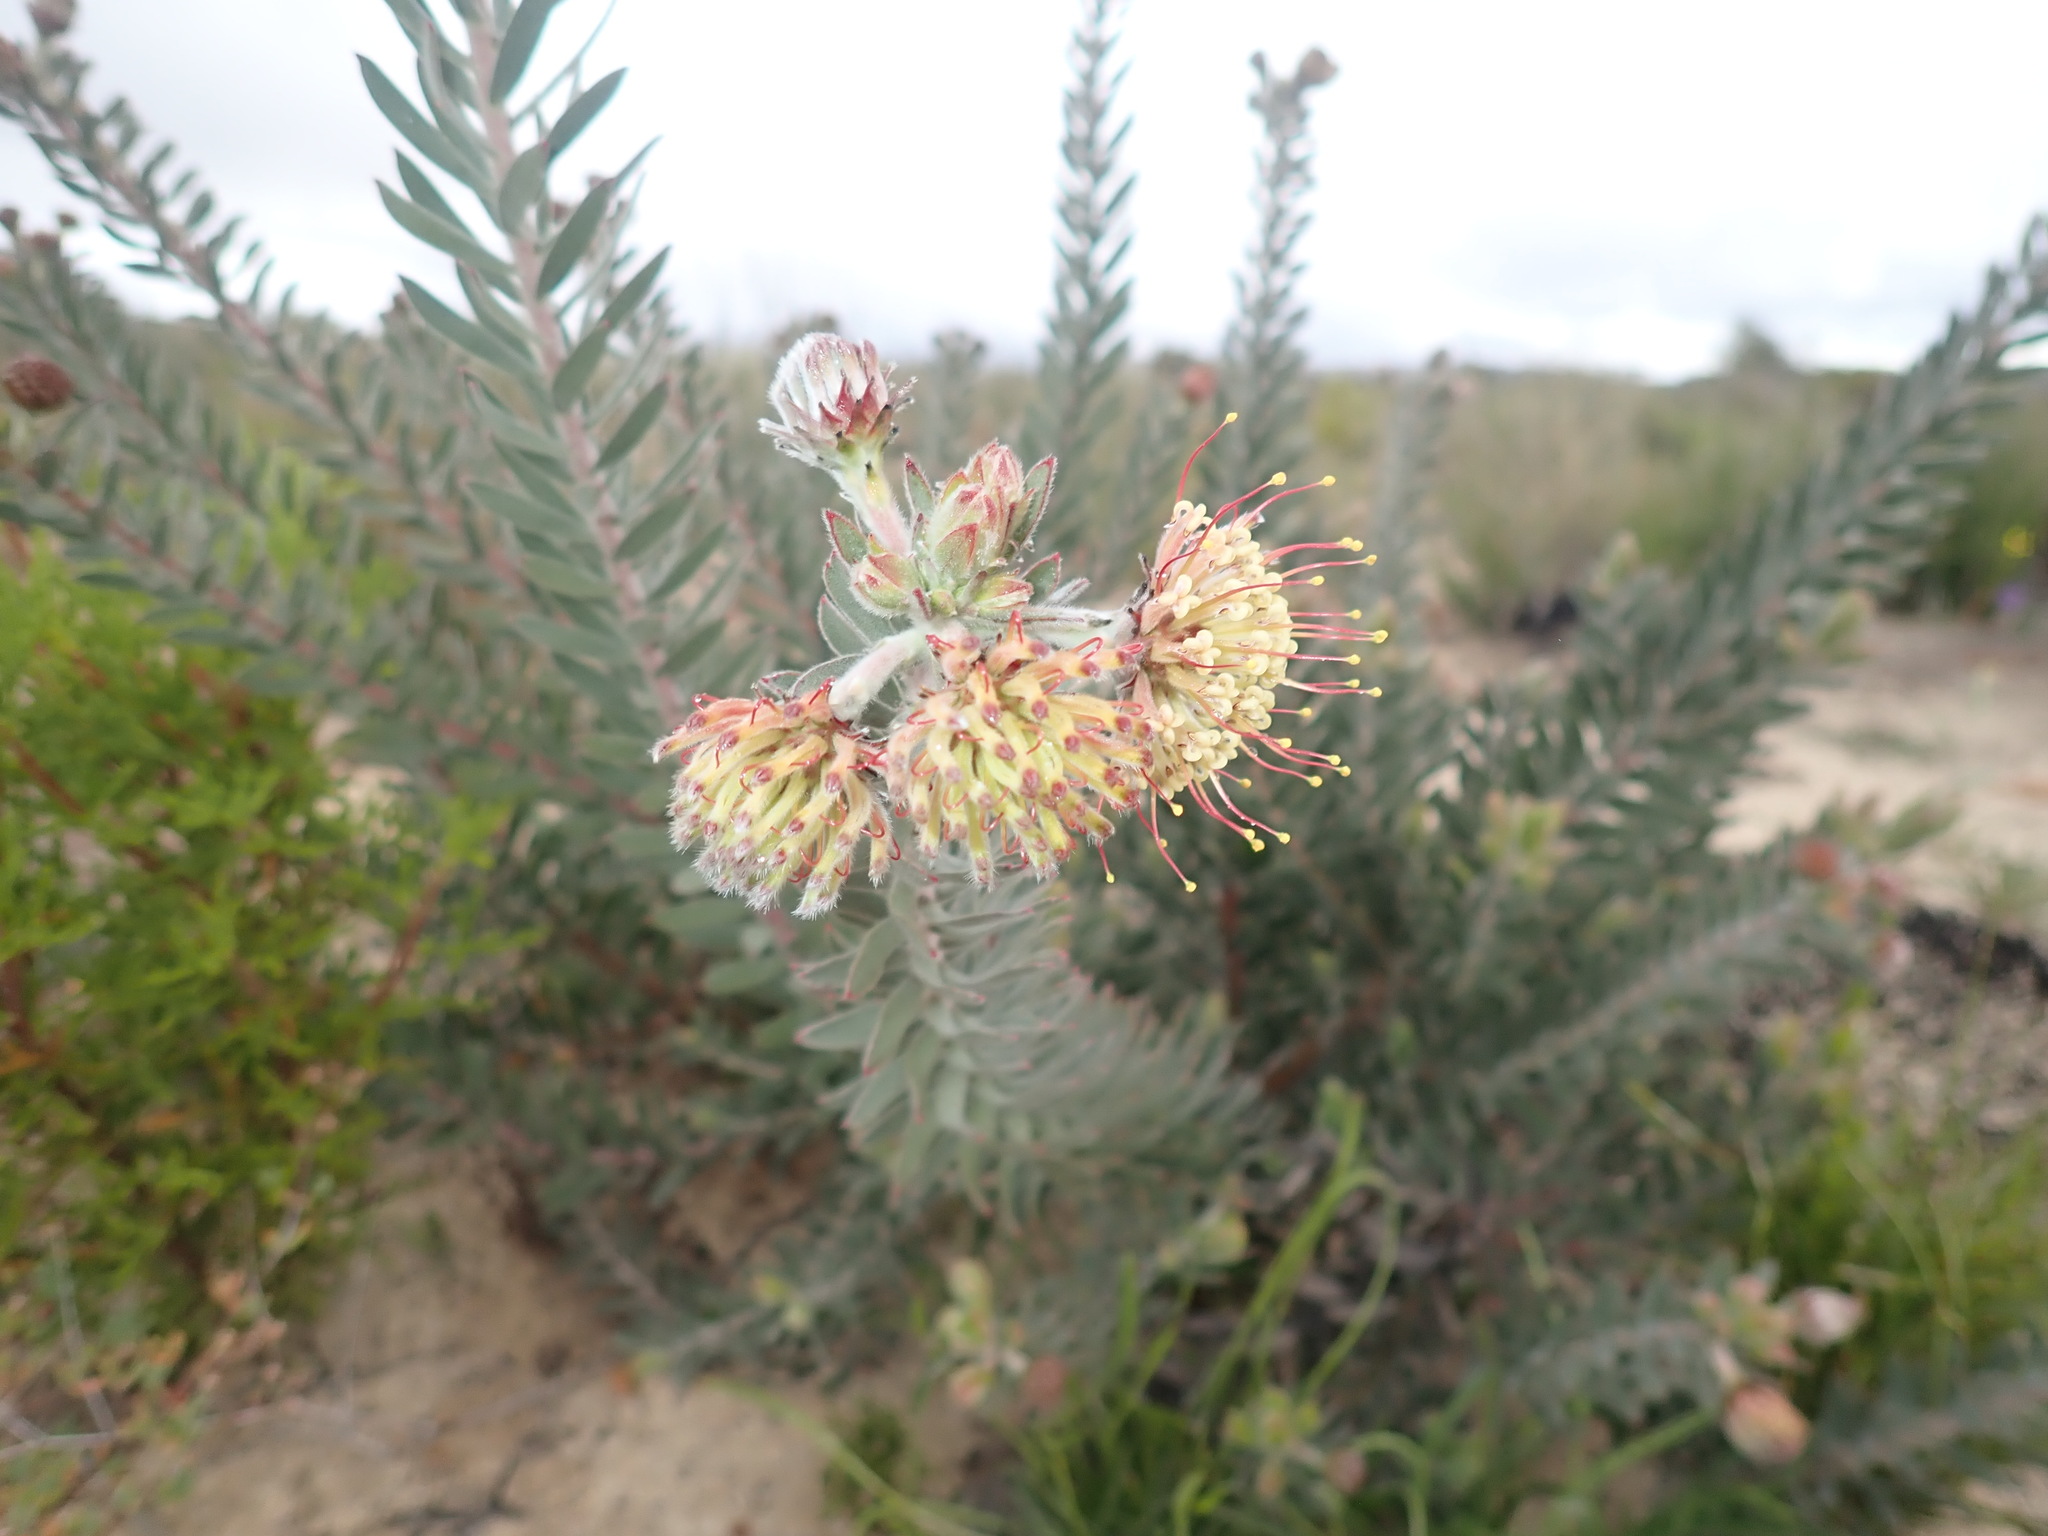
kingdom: Plantae
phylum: Tracheophyta
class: Magnoliopsida
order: Proteales
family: Proteaceae
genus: Leucospermum
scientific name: Leucospermum calligerum
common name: Arid pincushion
